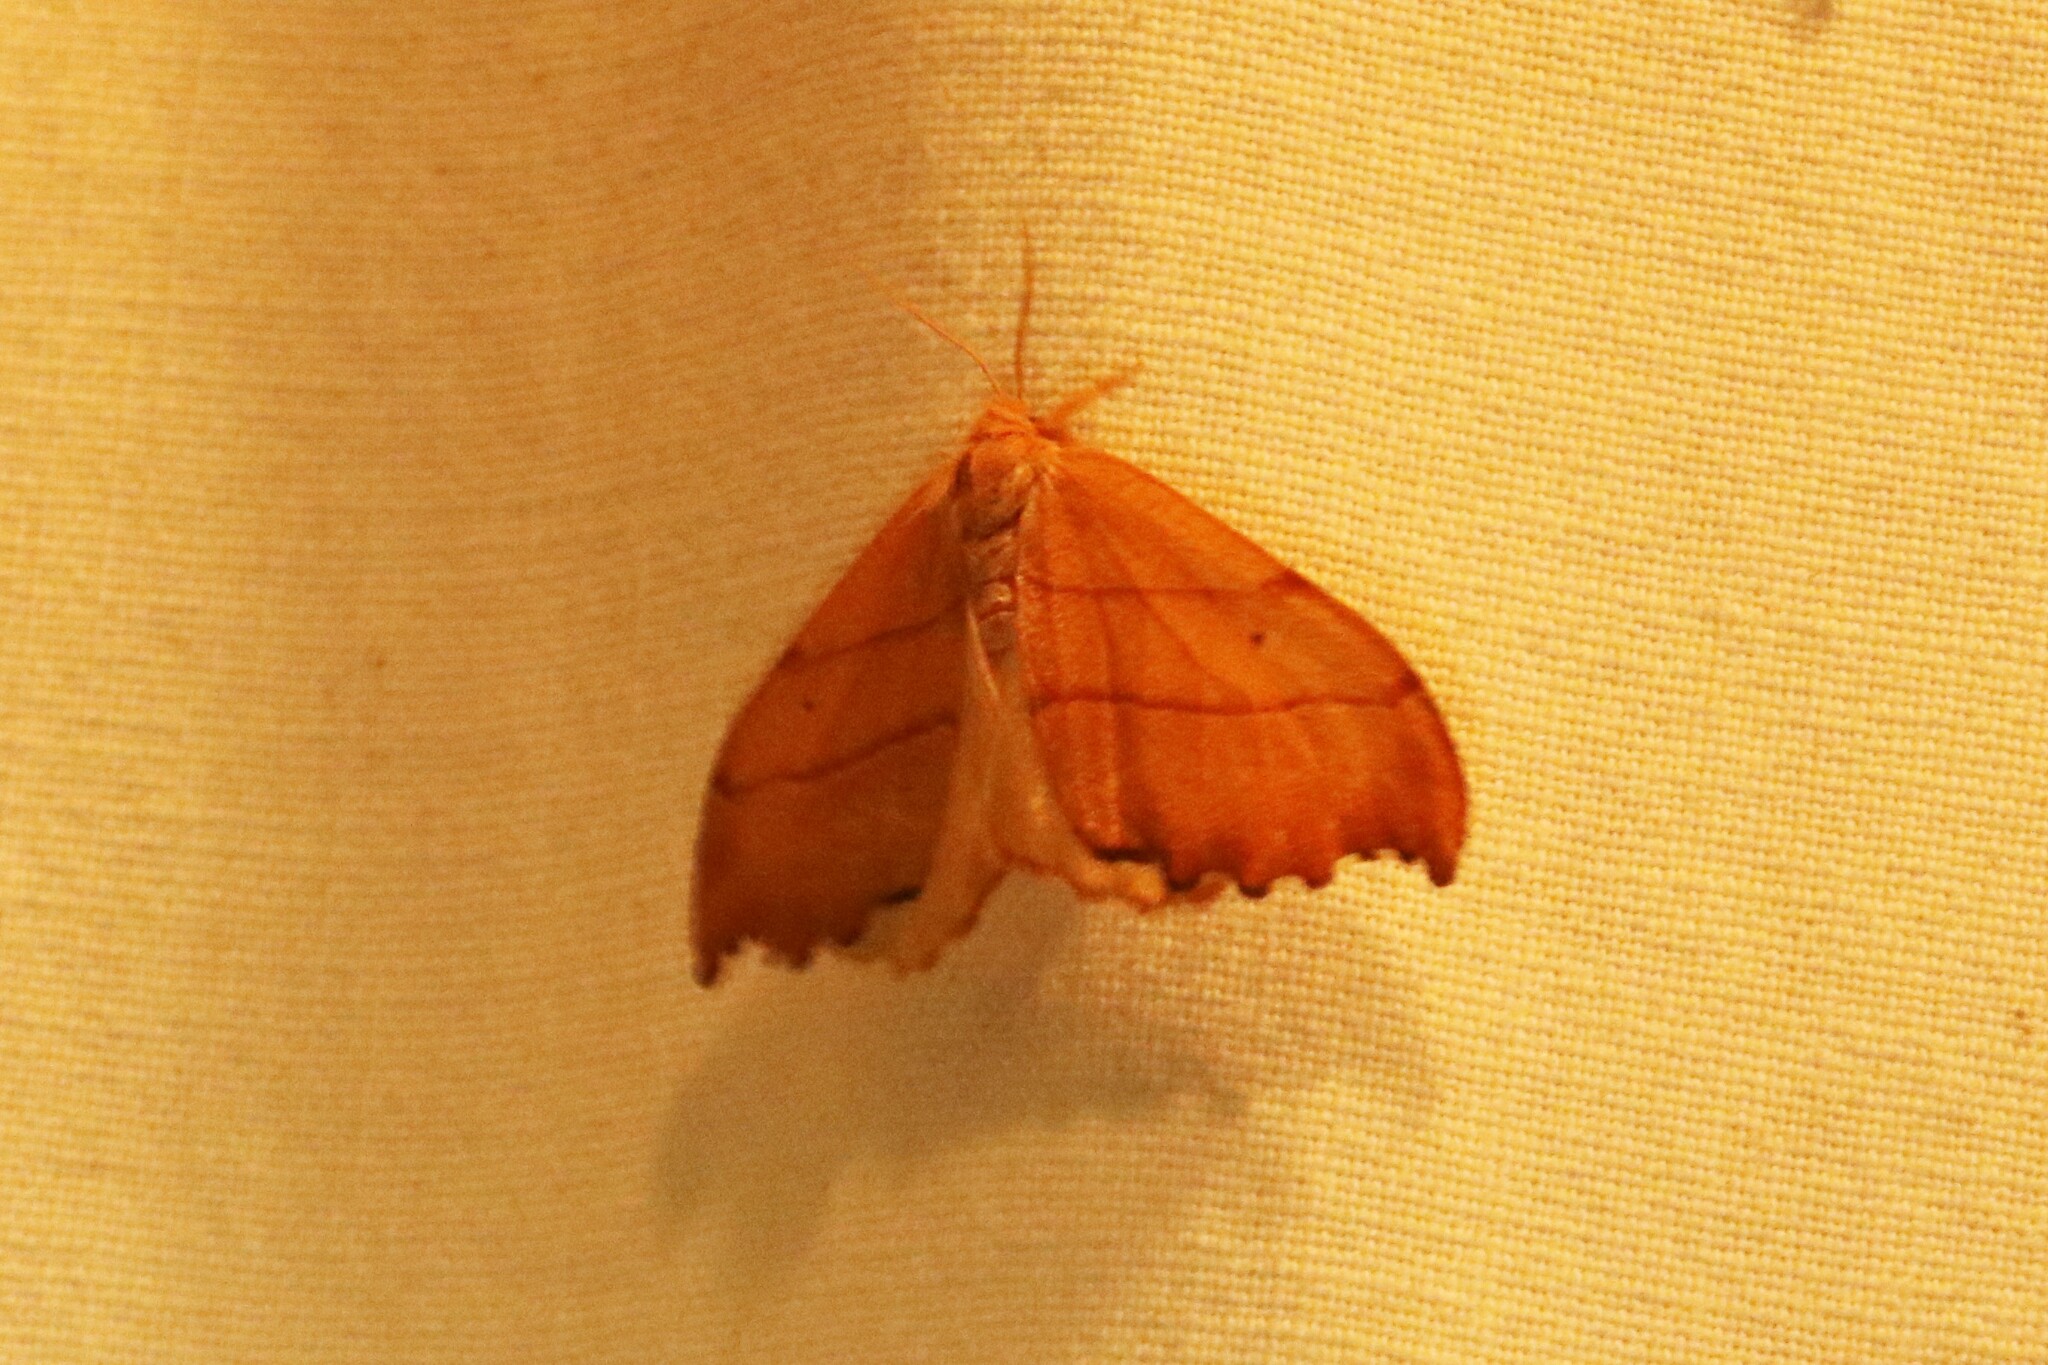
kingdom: Animalia
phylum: Arthropoda
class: Insecta
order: Lepidoptera
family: Drepanidae
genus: Falcaria
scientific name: Falcaria bilineata
